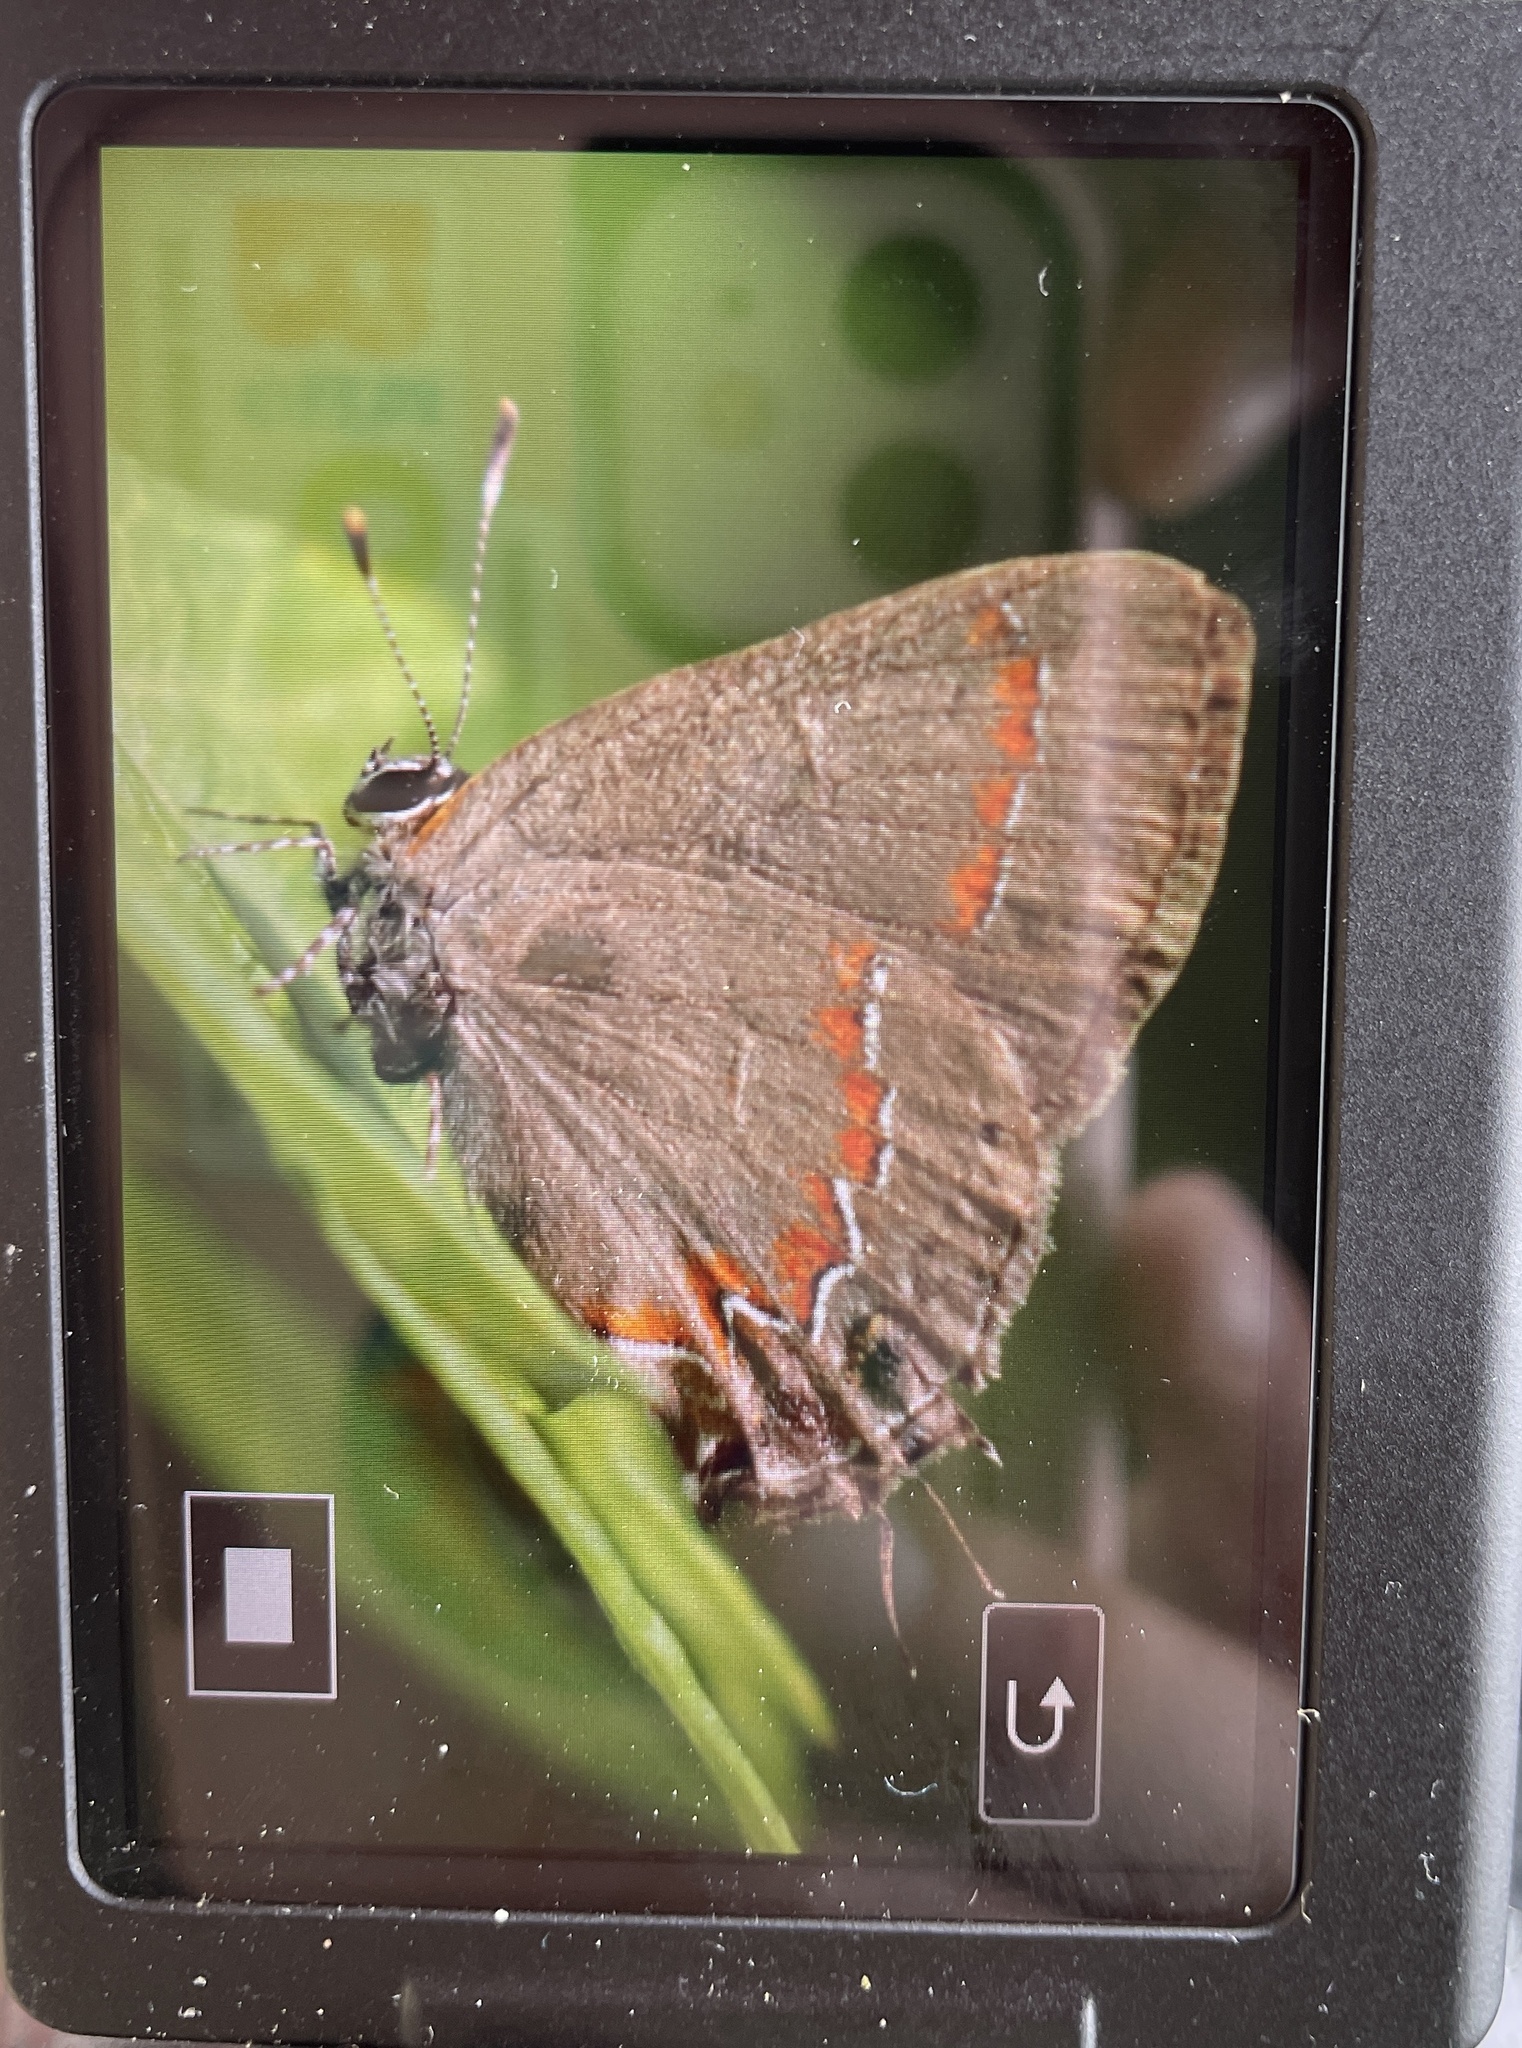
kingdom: Animalia
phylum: Arthropoda
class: Insecta
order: Lepidoptera
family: Lycaenidae
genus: Calycopis
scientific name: Calycopis cecrops
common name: Red-banded hairstreak
